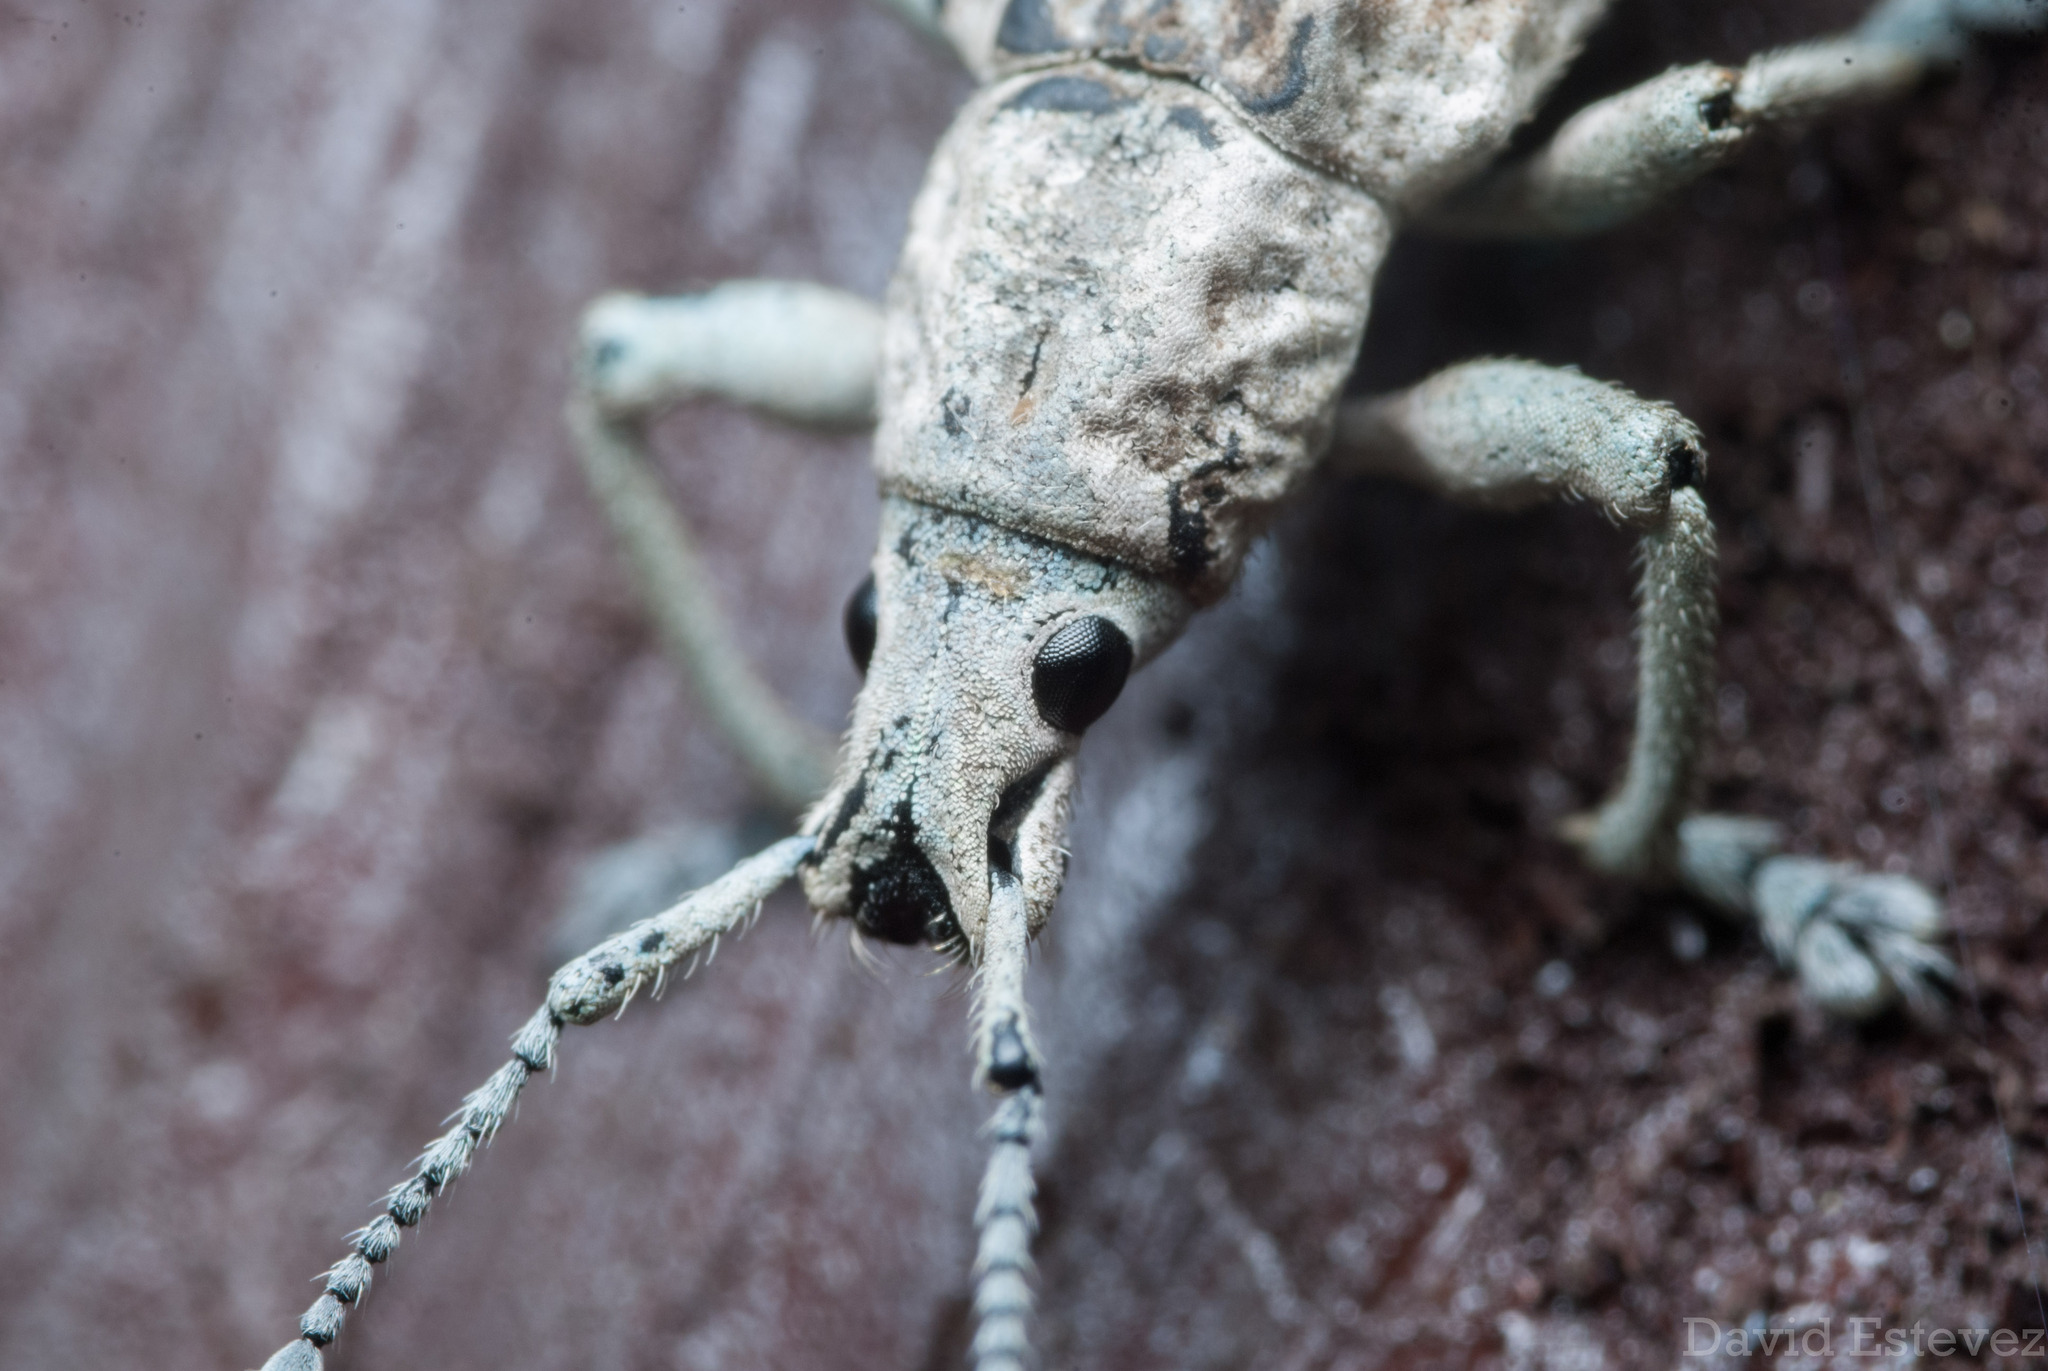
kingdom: Animalia
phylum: Arthropoda
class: Insecta
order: Coleoptera
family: Curculionidae
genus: Compsus
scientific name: Compsus canescens
